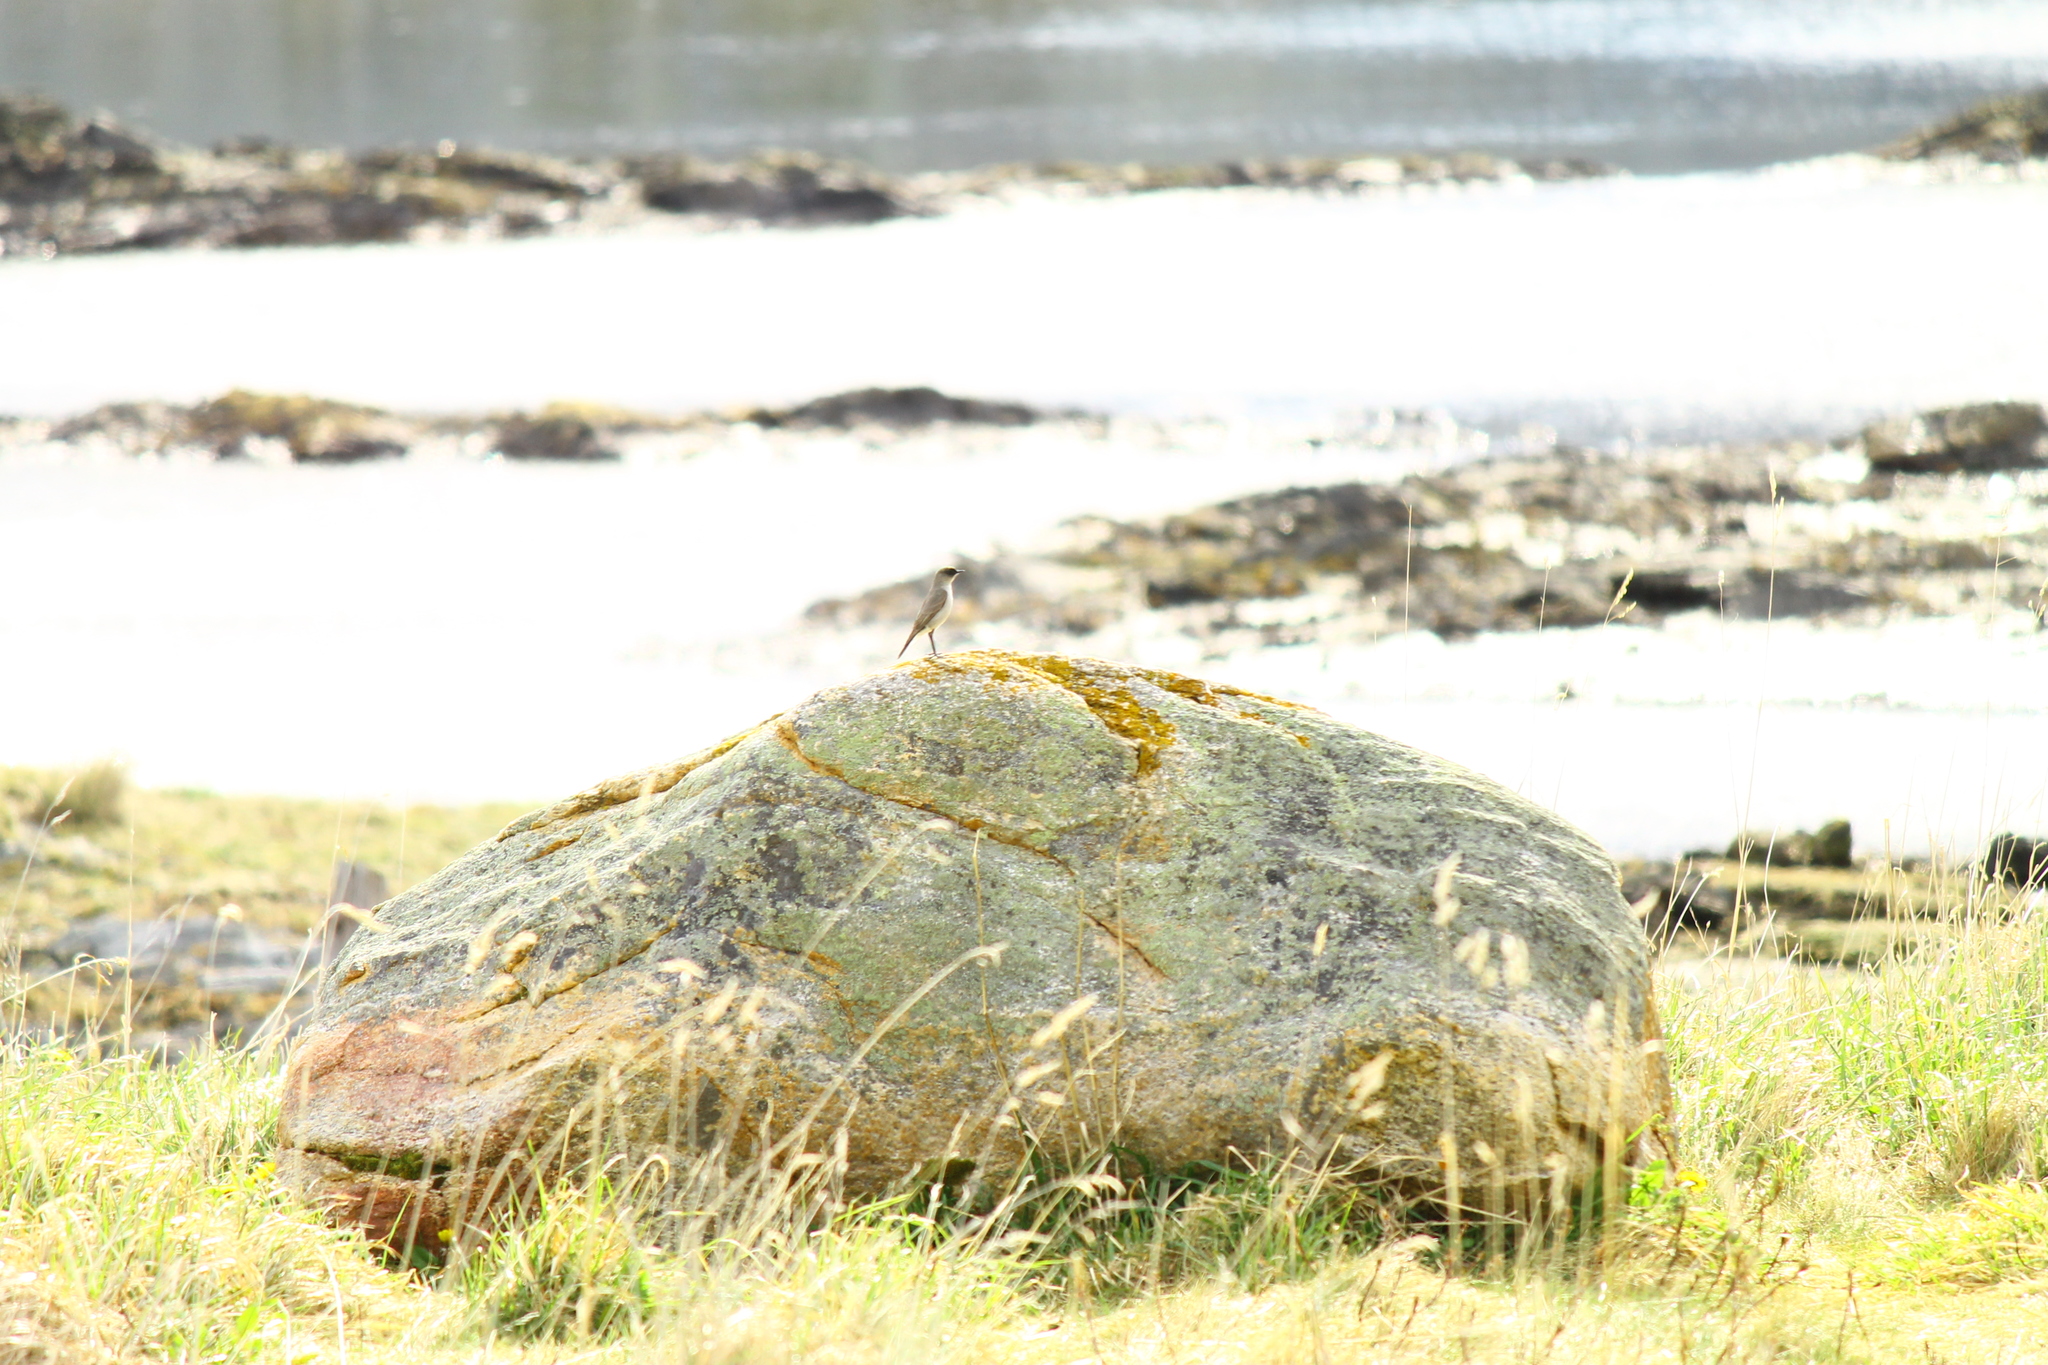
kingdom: Animalia
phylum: Chordata
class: Aves
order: Passeriformes
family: Tyrannidae
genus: Muscisaxicola
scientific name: Muscisaxicola maclovianus
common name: Dark-faced ground tyrant
